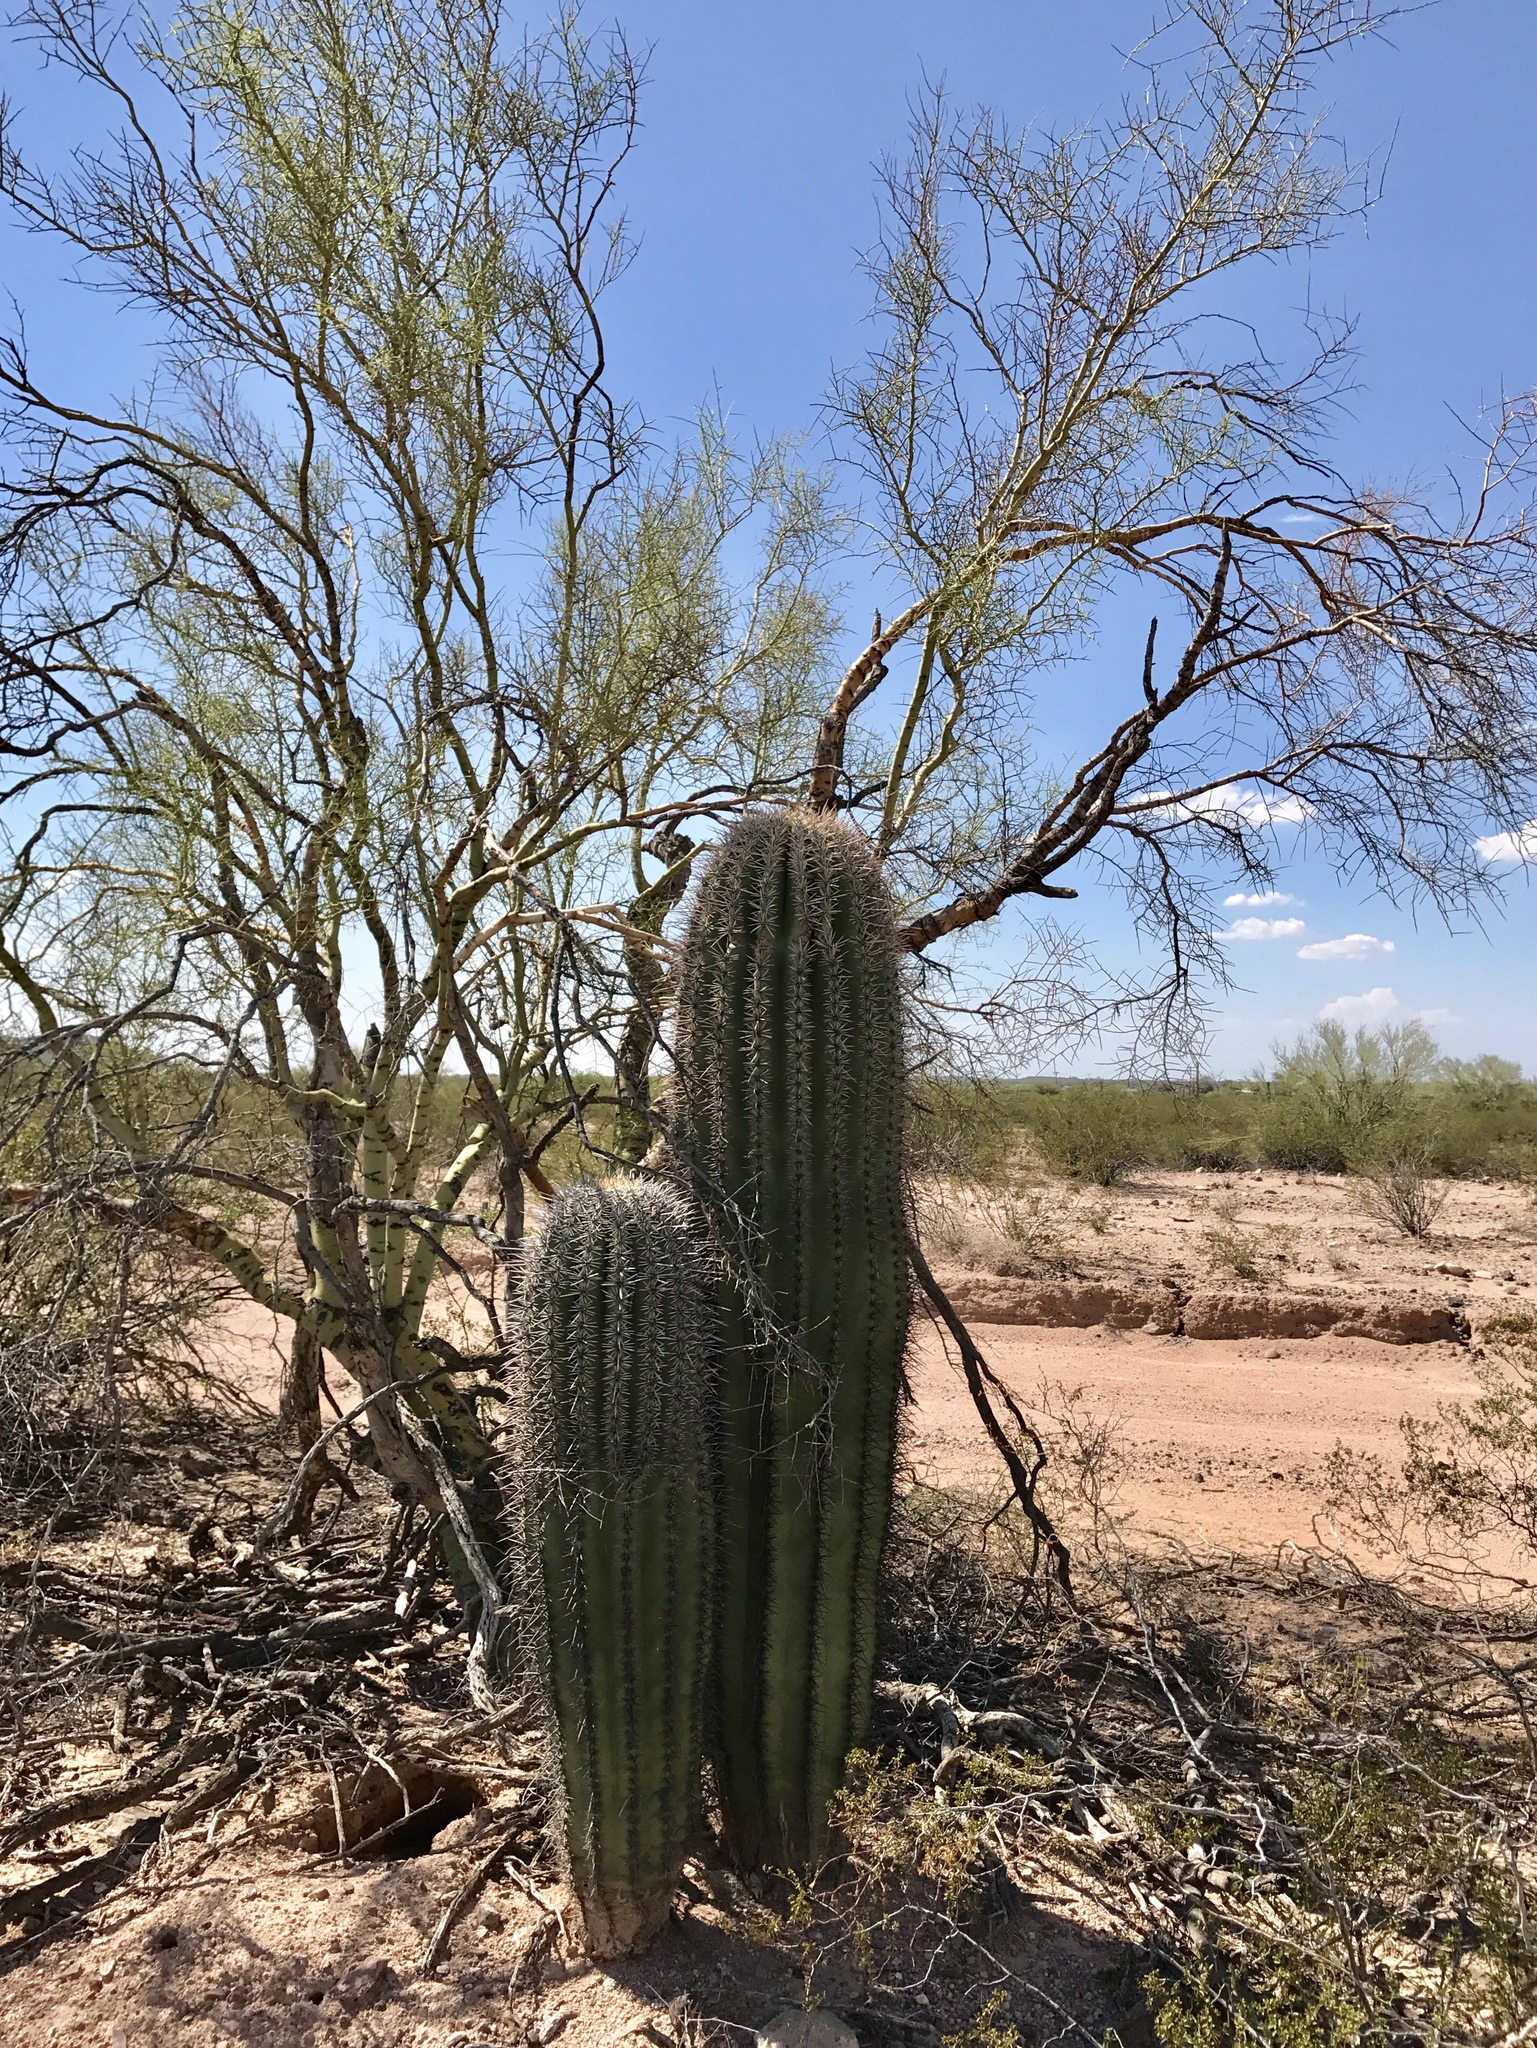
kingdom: Plantae
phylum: Tracheophyta
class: Magnoliopsida
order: Caryophyllales
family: Cactaceae
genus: Carnegiea
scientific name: Carnegiea gigantea
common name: Saguaro
